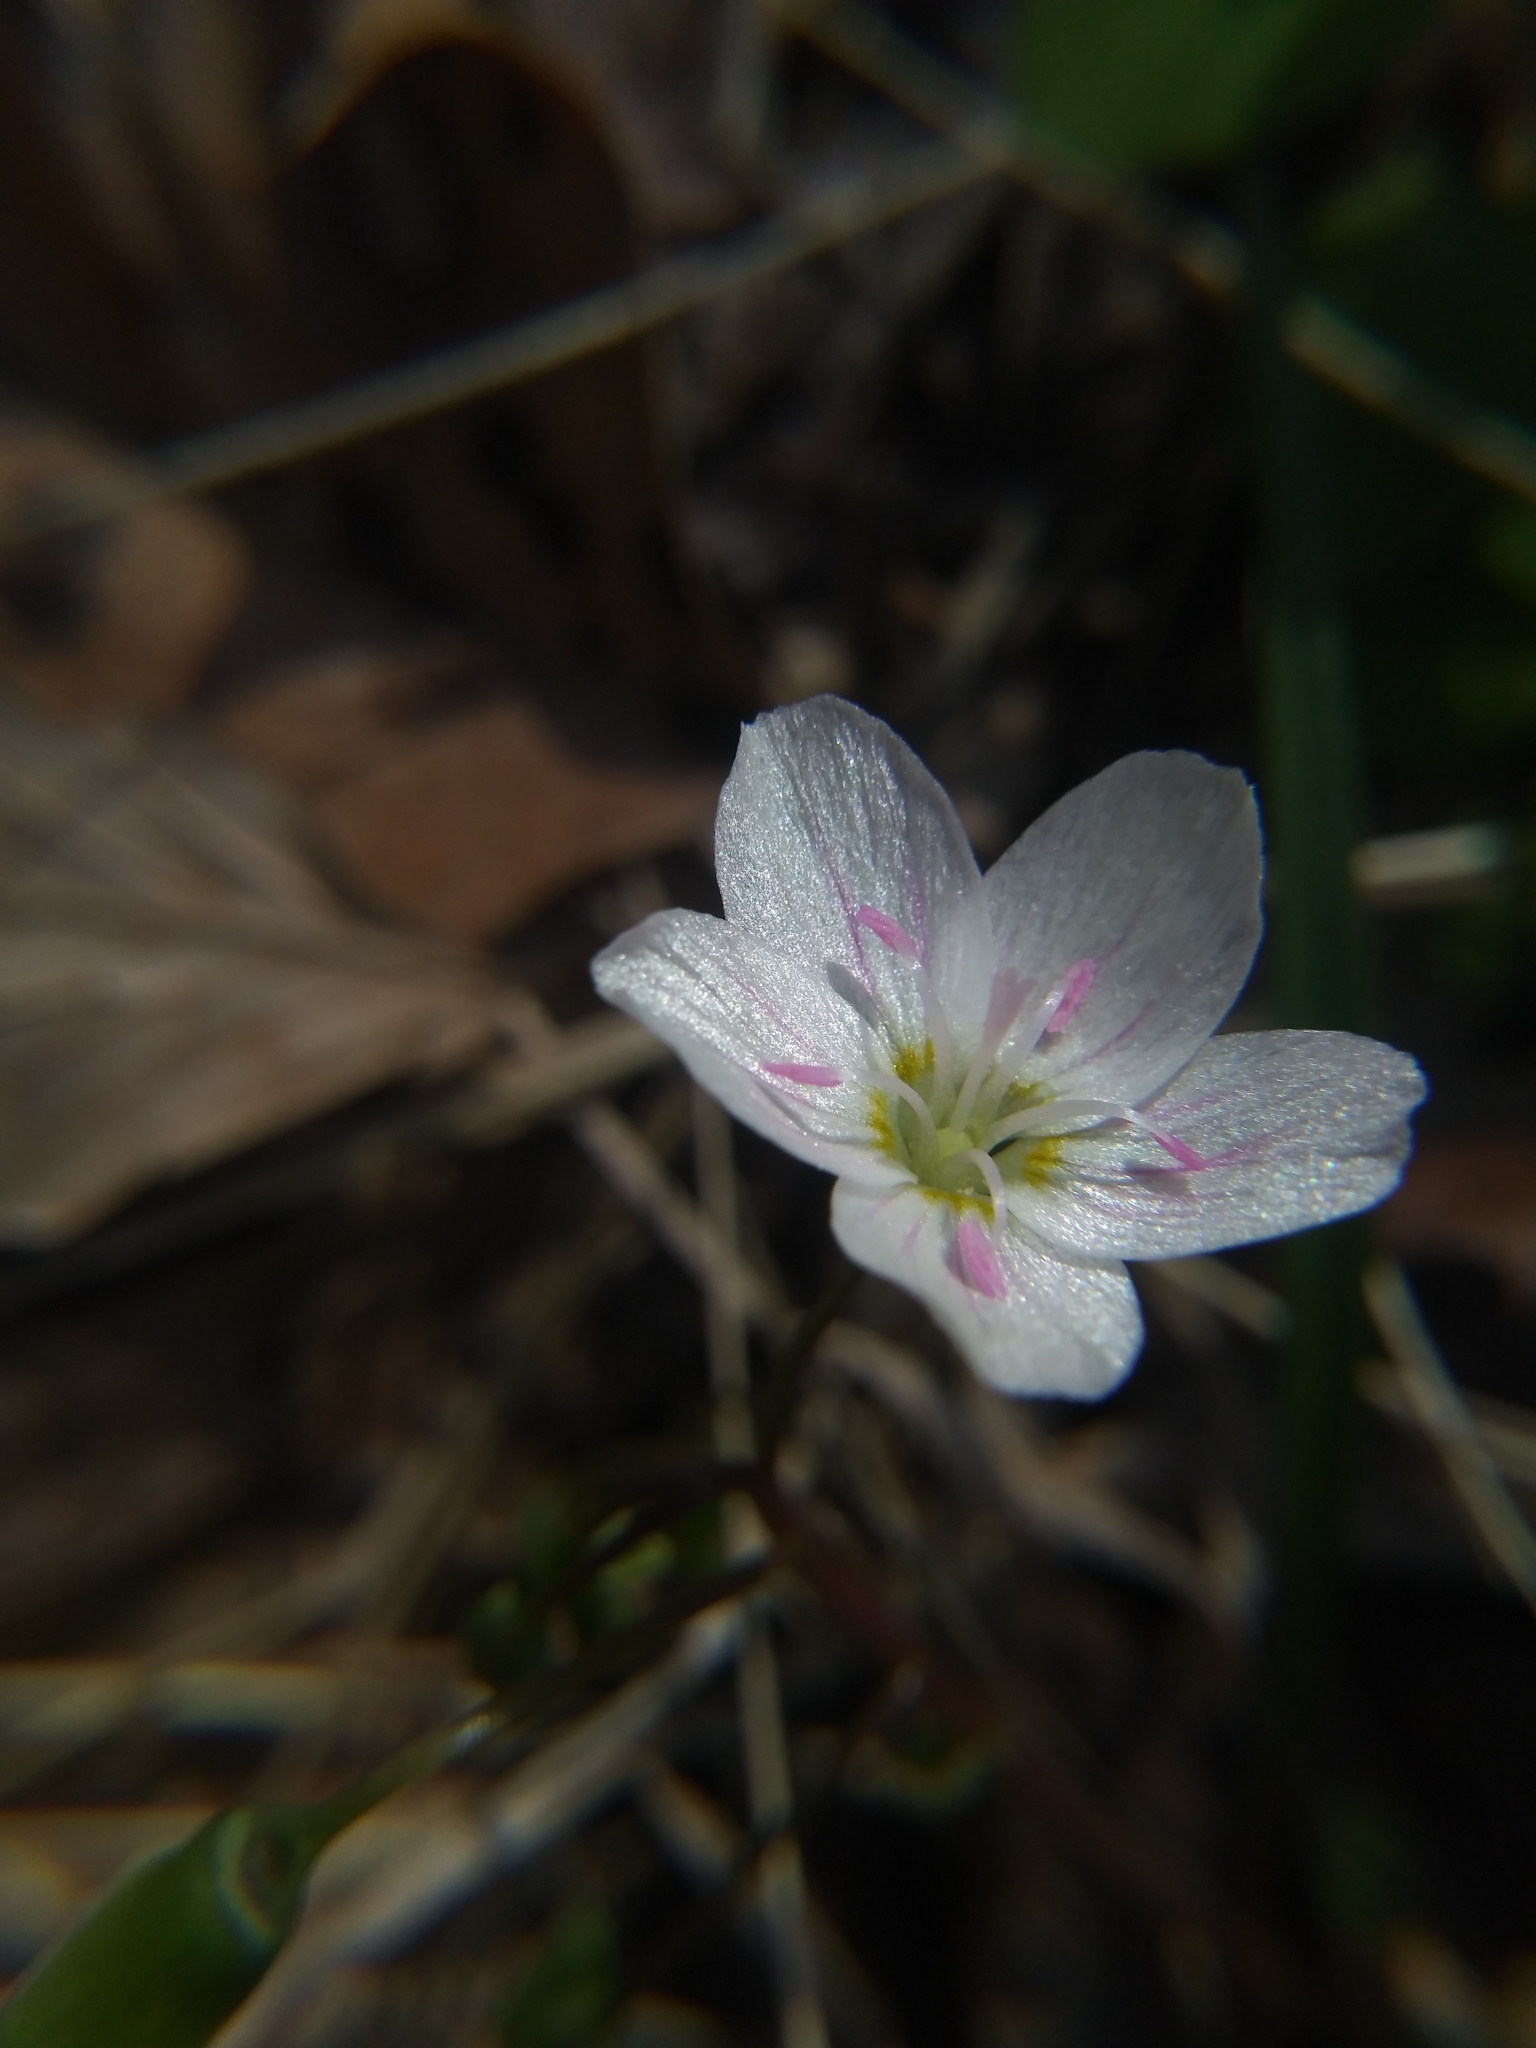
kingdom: Plantae
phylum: Tracheophyta
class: Magnoliopsida
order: Caryophyllales
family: Montiaceae
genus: Claytonia
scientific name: Claytonia virginica
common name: Virginia springbeauty
